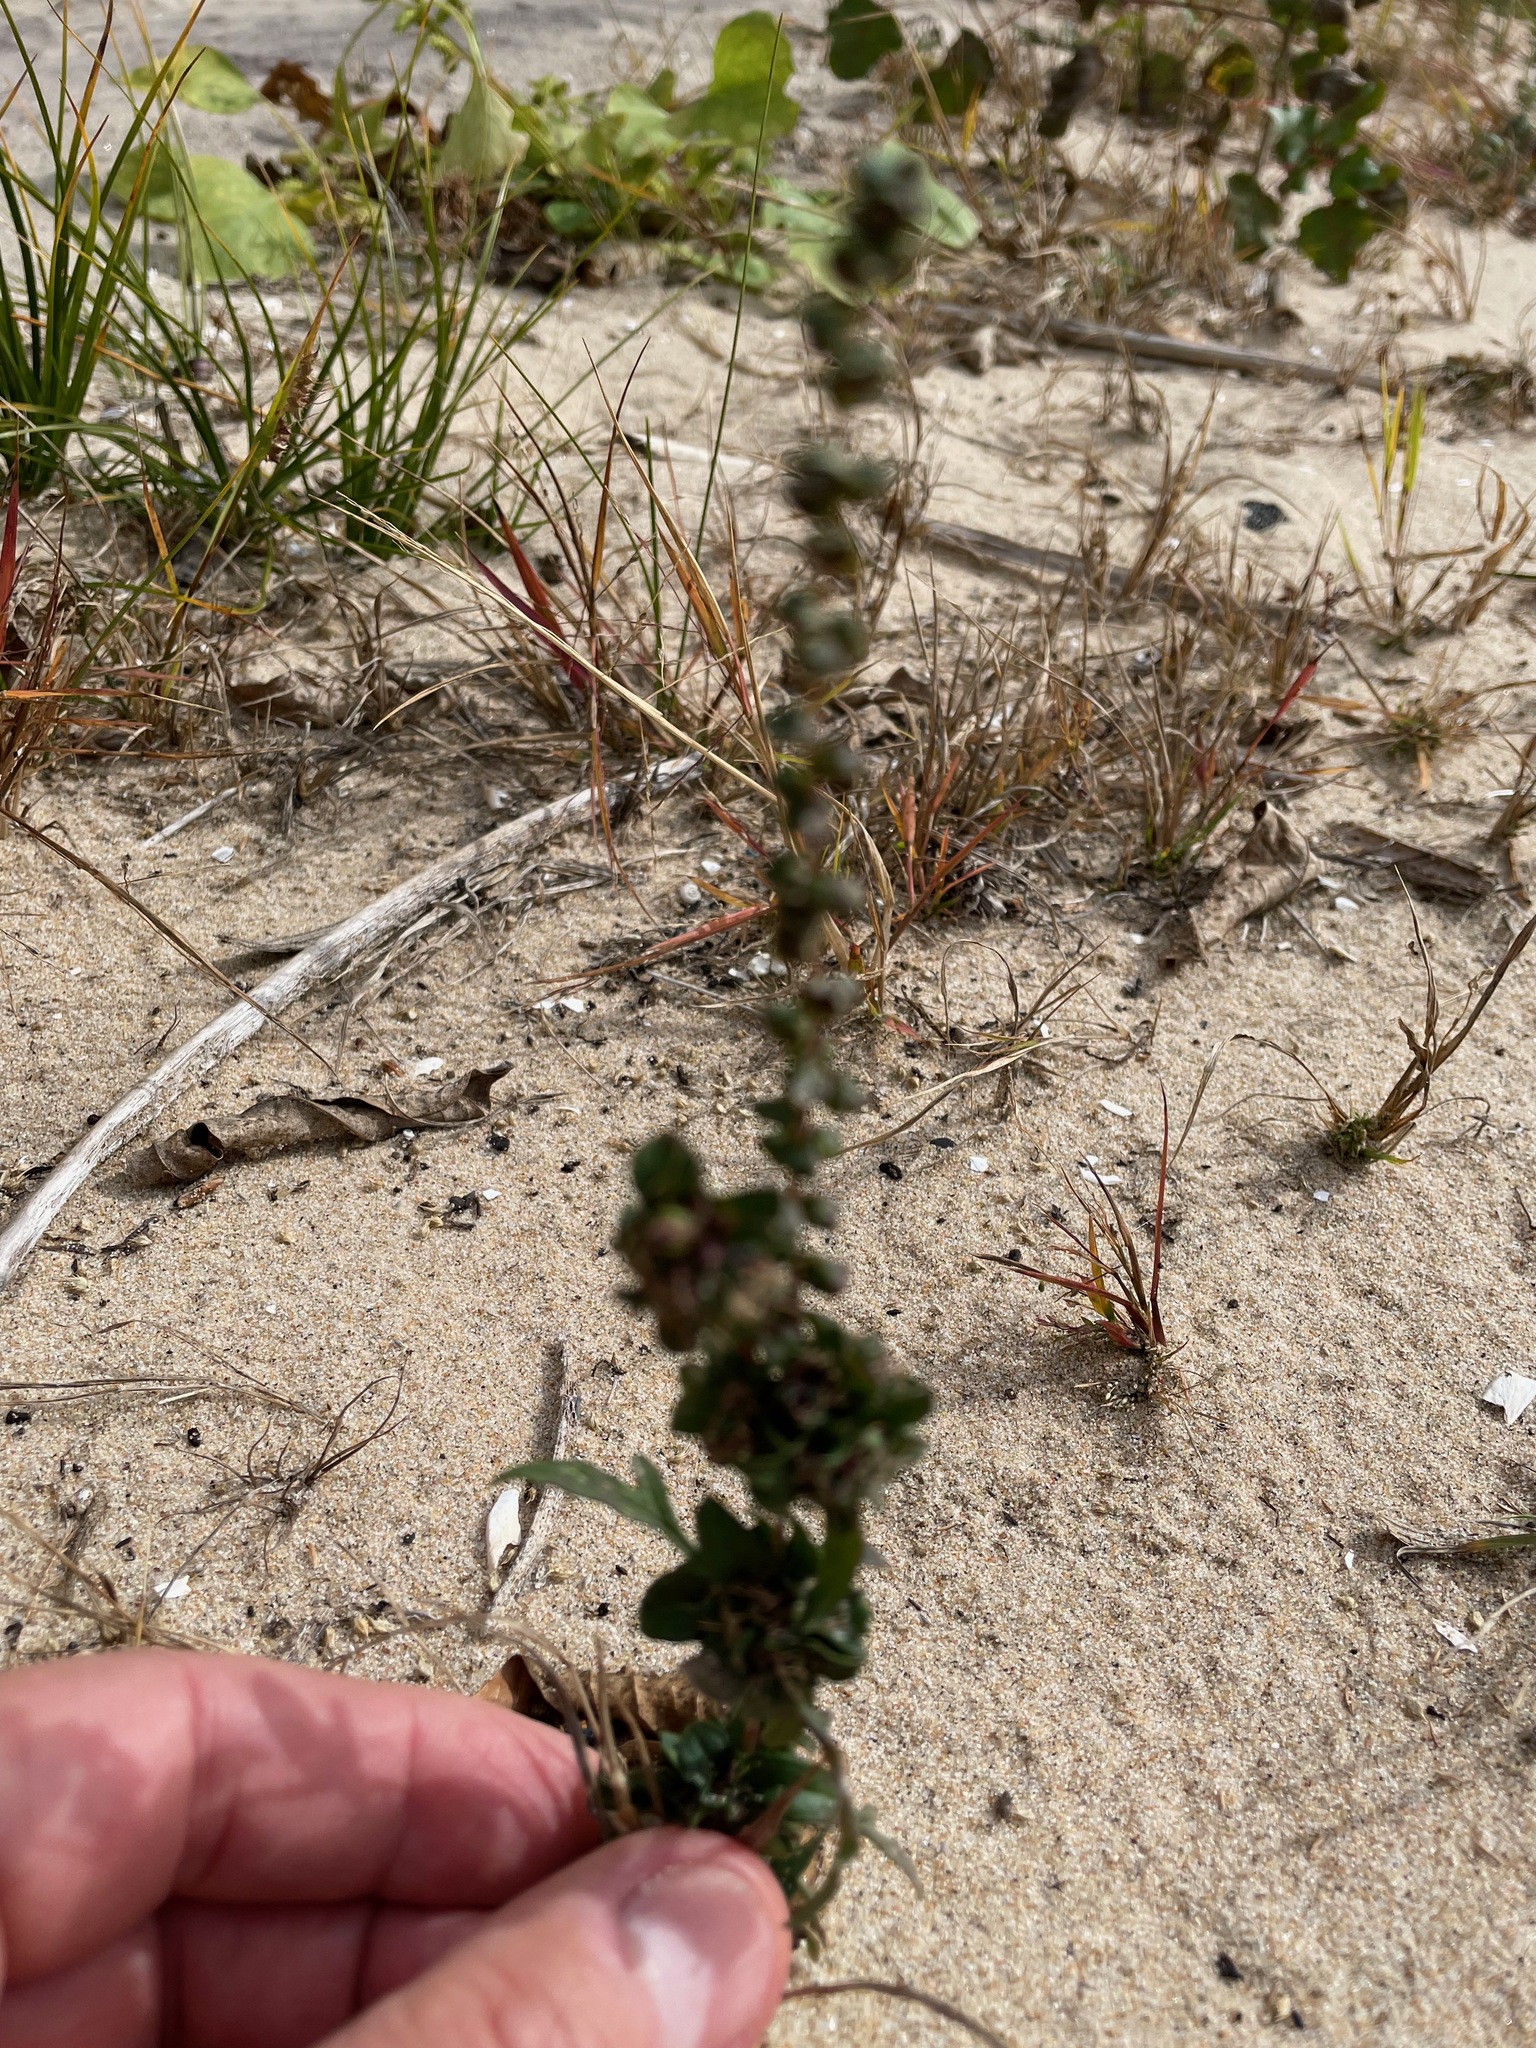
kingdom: Plantae
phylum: Tracheophyta
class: Magnoliopsida
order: Asterales
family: Asteraceae
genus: Ambrosia
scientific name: Ambrosia artemisiifolia
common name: Annual ragweed
